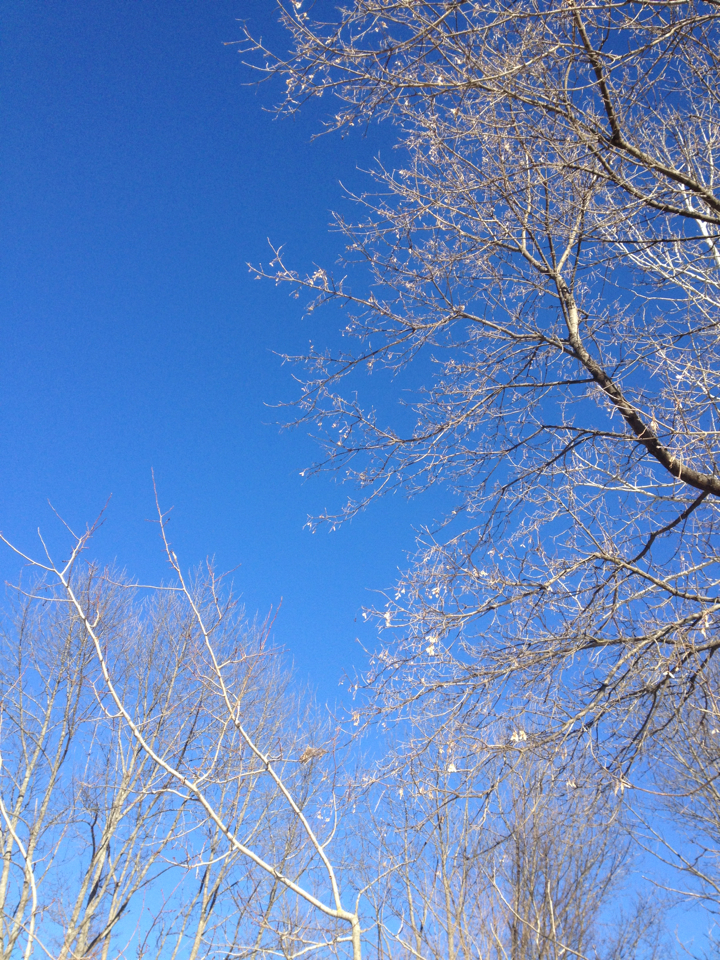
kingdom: Plantae
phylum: Tracheophyta
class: Magnoliopsida
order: Sapindales
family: Sapindaceae
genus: Acer
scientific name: Acer negundo
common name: Ashleaf maple
